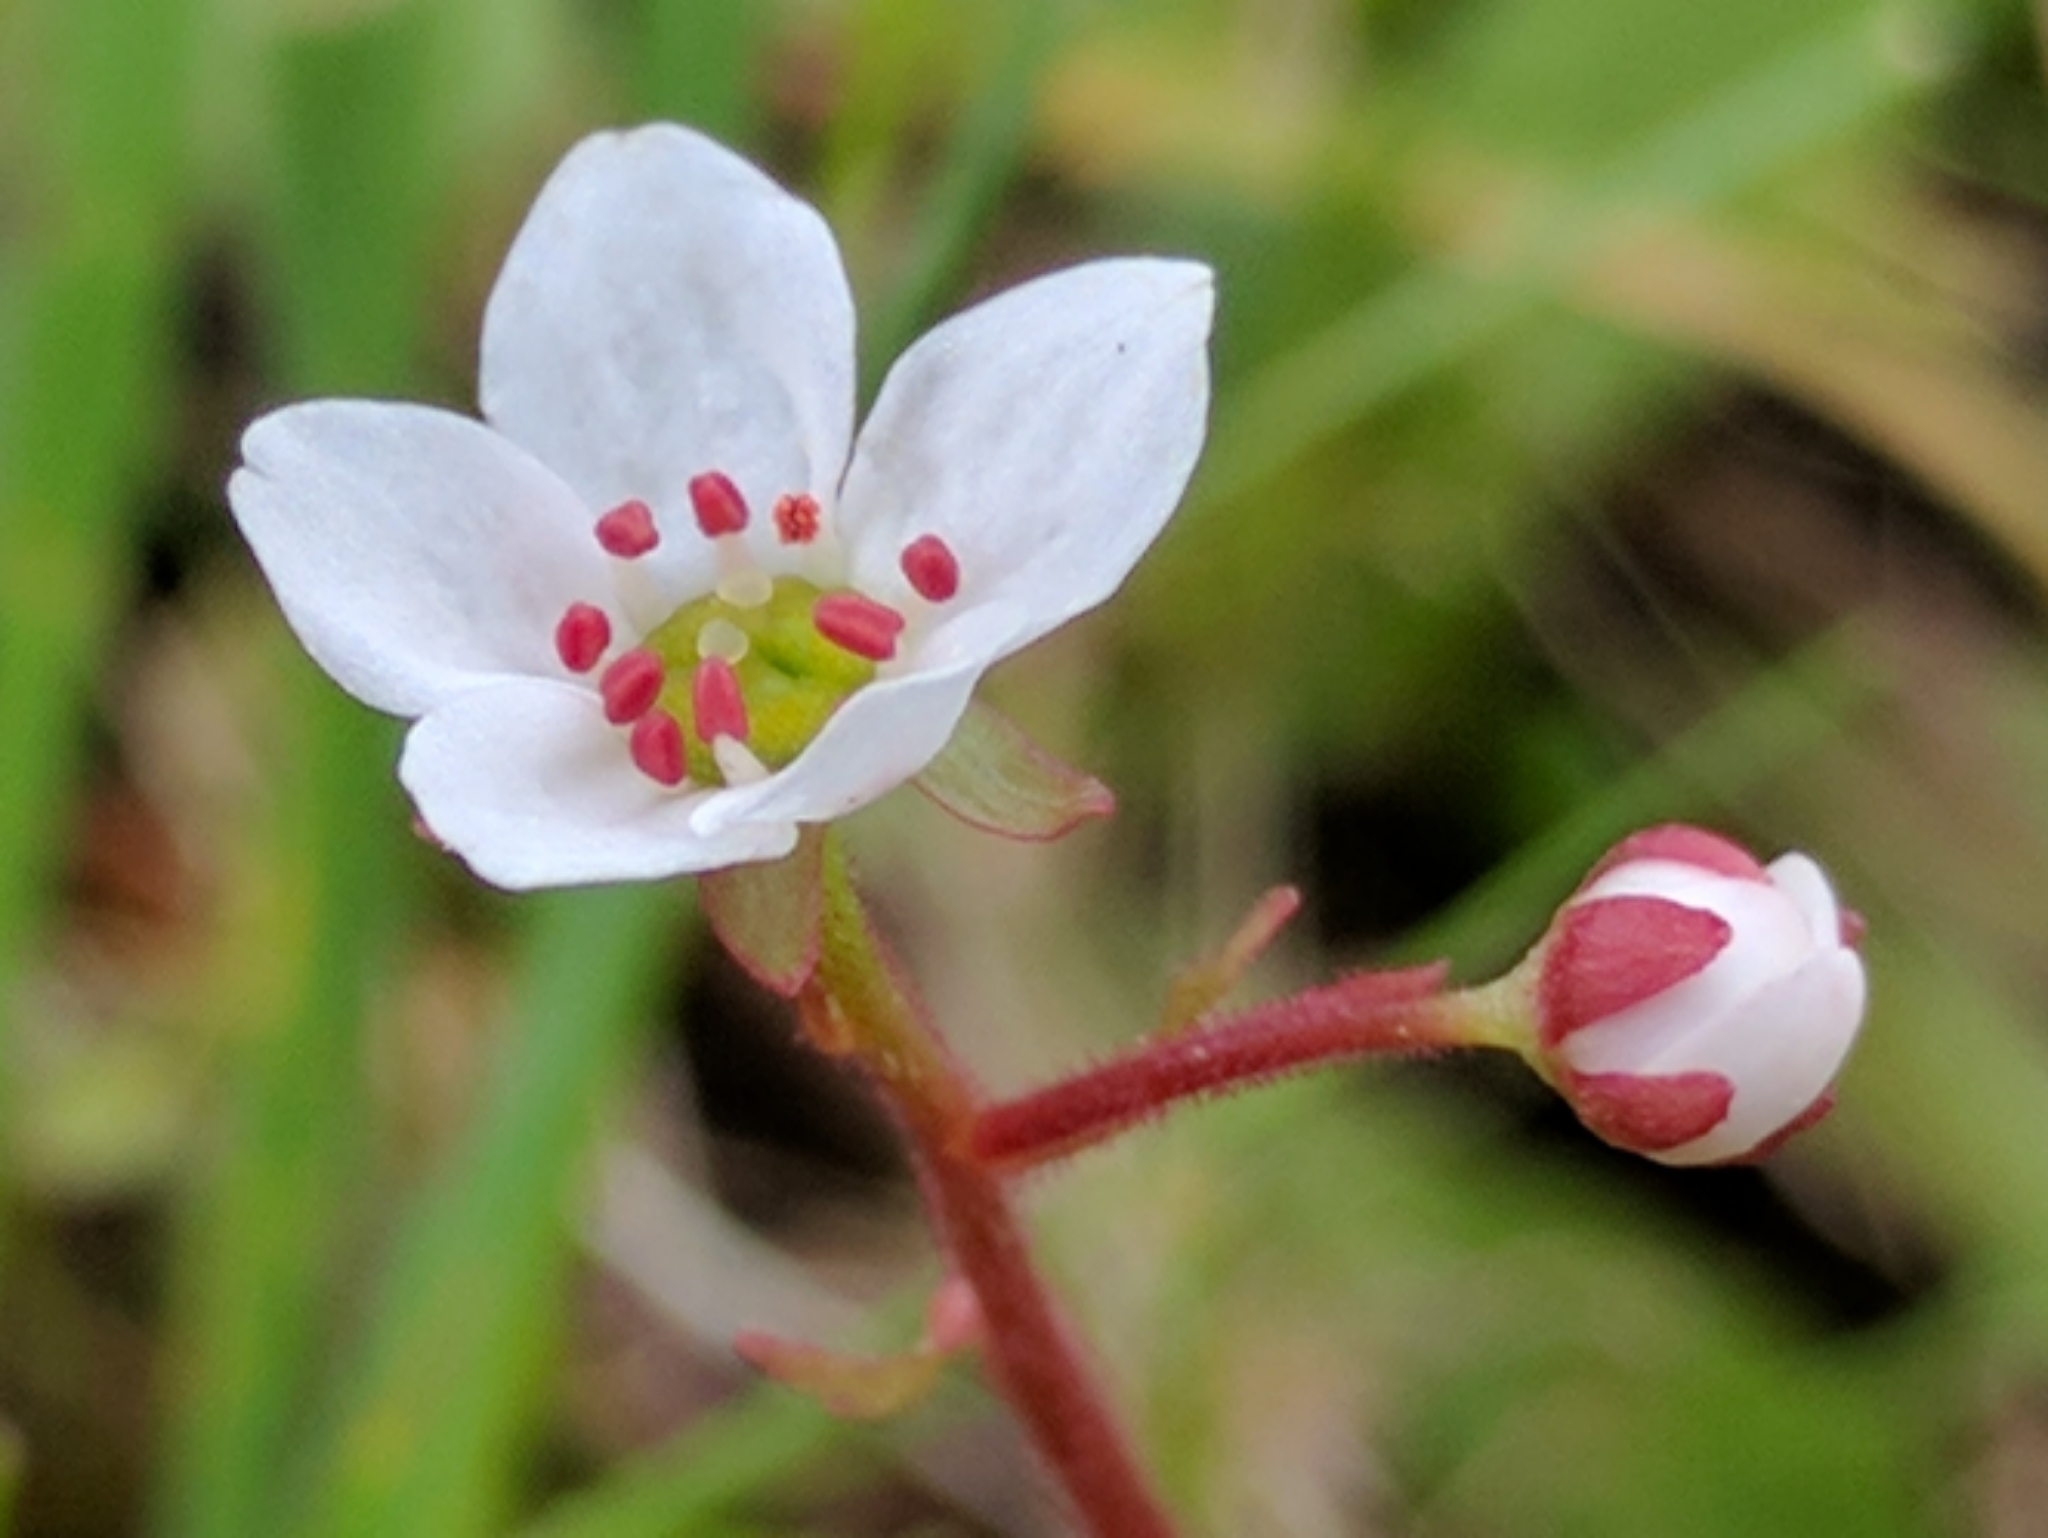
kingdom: Plantae
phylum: Tracheophyta
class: Magnoliopsida
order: Saxifragales
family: Saxifragaceae
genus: Micranthes
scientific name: Micranthes californica
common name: California saxifrage
